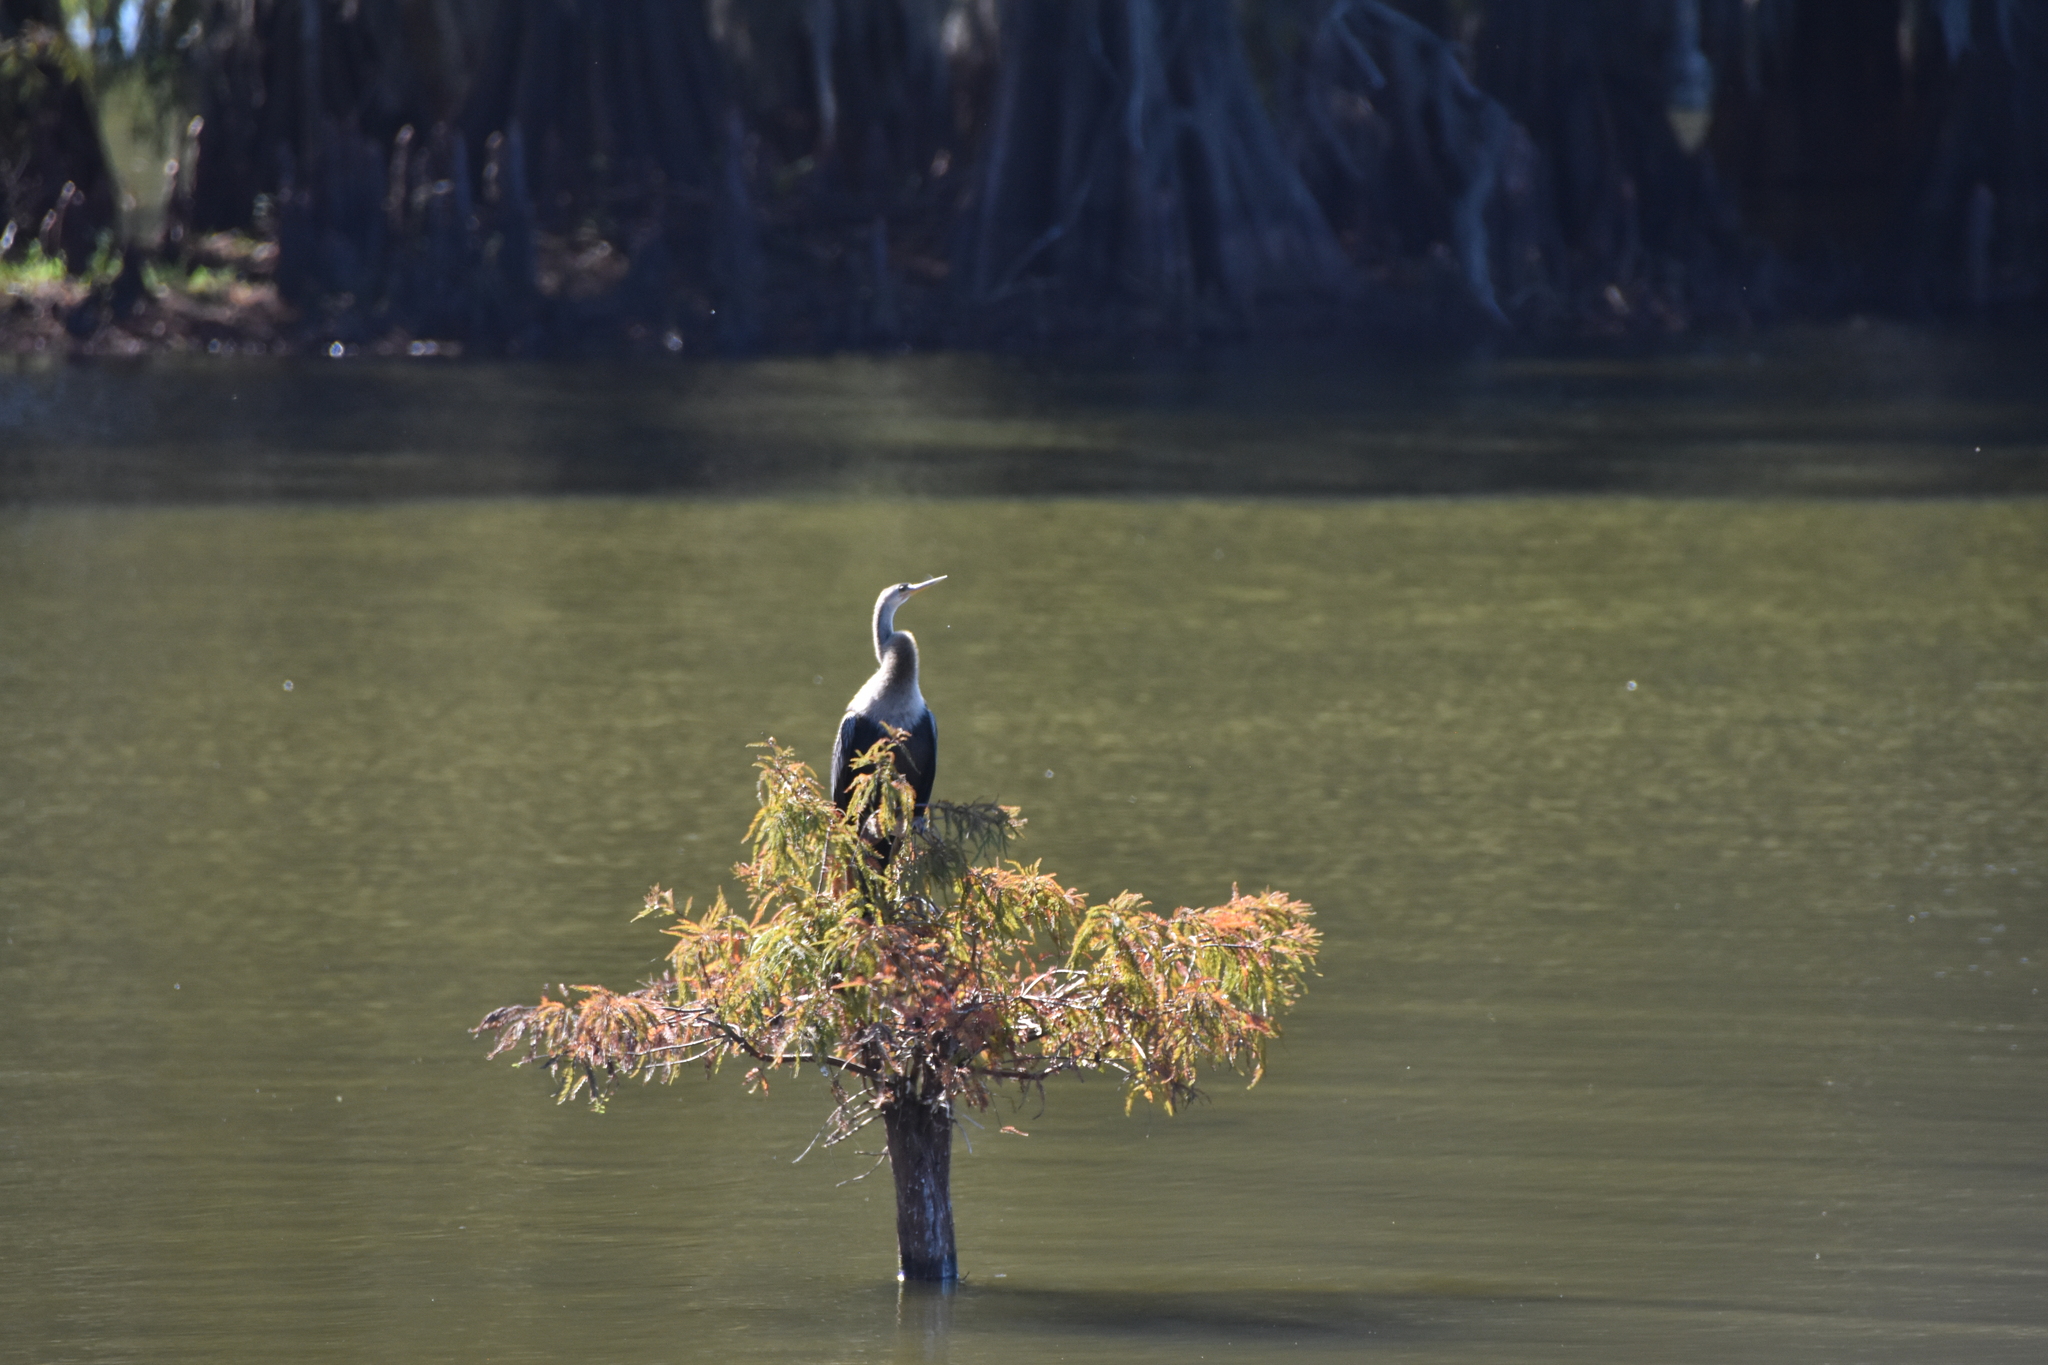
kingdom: Animalia
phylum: Chordata
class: Aves
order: Suliformes
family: Anhingidae
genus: Anhinga
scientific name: Anhinga anhinga
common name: Anhinga
